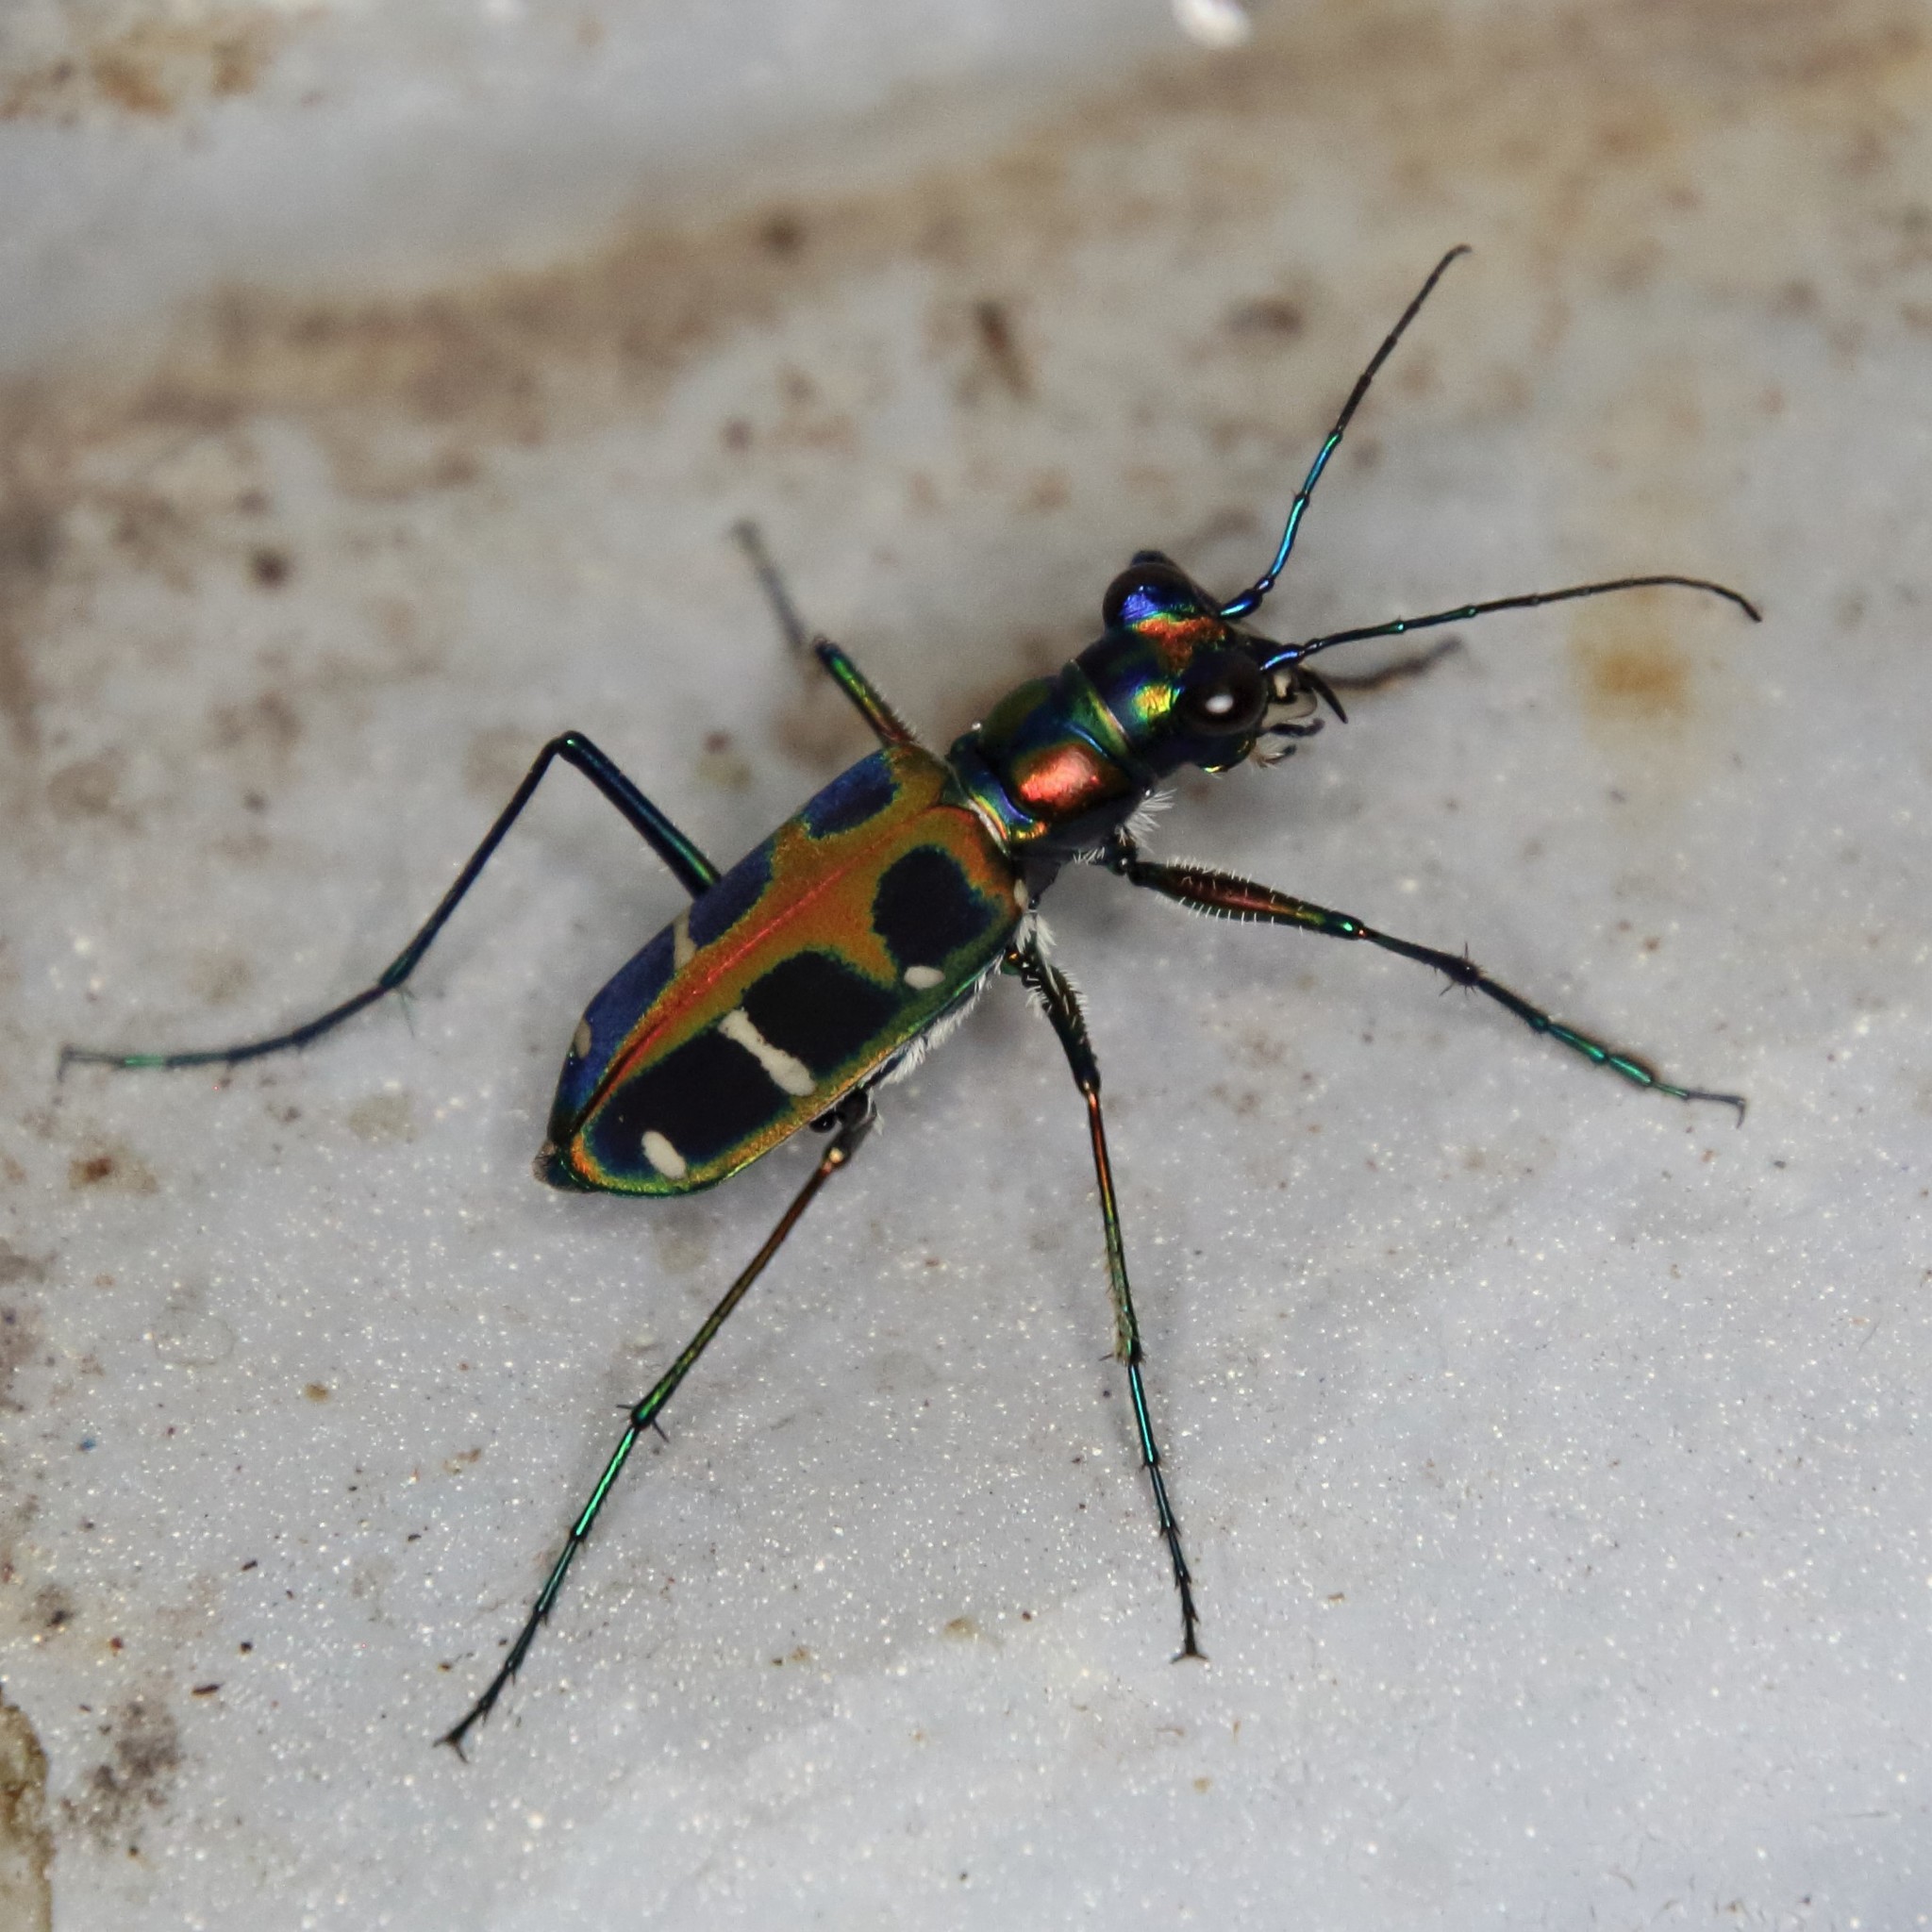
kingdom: Animalia
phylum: Arthropoda
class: Insecta
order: Coleoptera
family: Carabidae
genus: Cicindela
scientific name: Cicindela duponti
